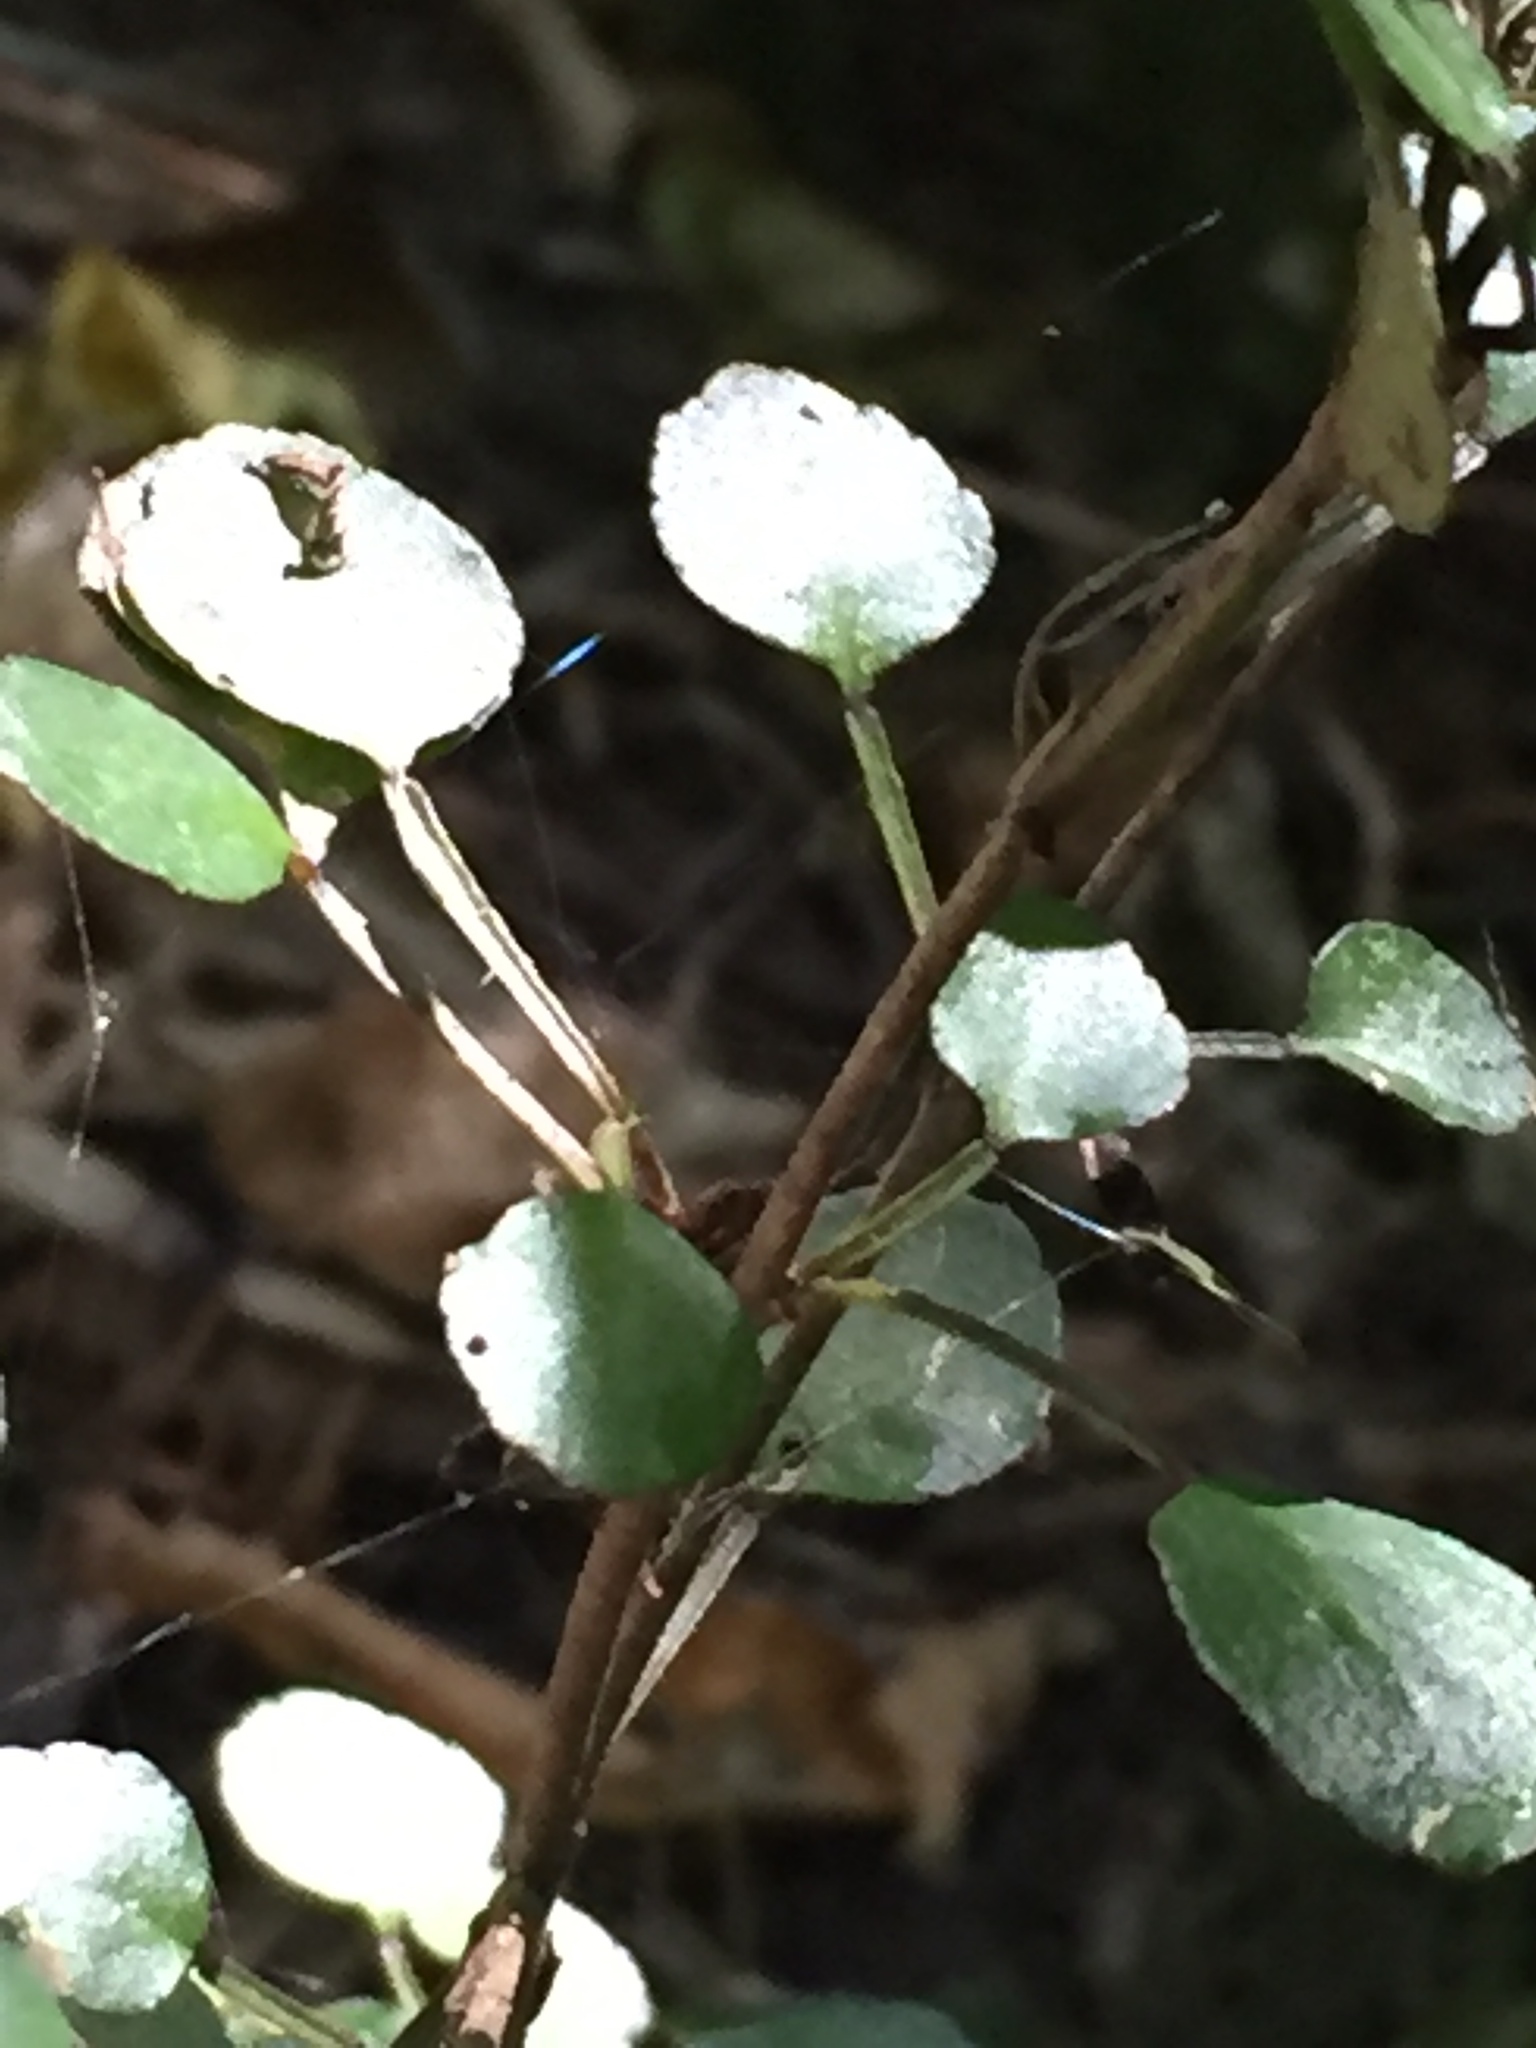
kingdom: Plantae
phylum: Tracheophyta
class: Magnoliopsida
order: Sapindales
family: Rutaceae
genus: Melicope
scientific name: Melicope simplex
